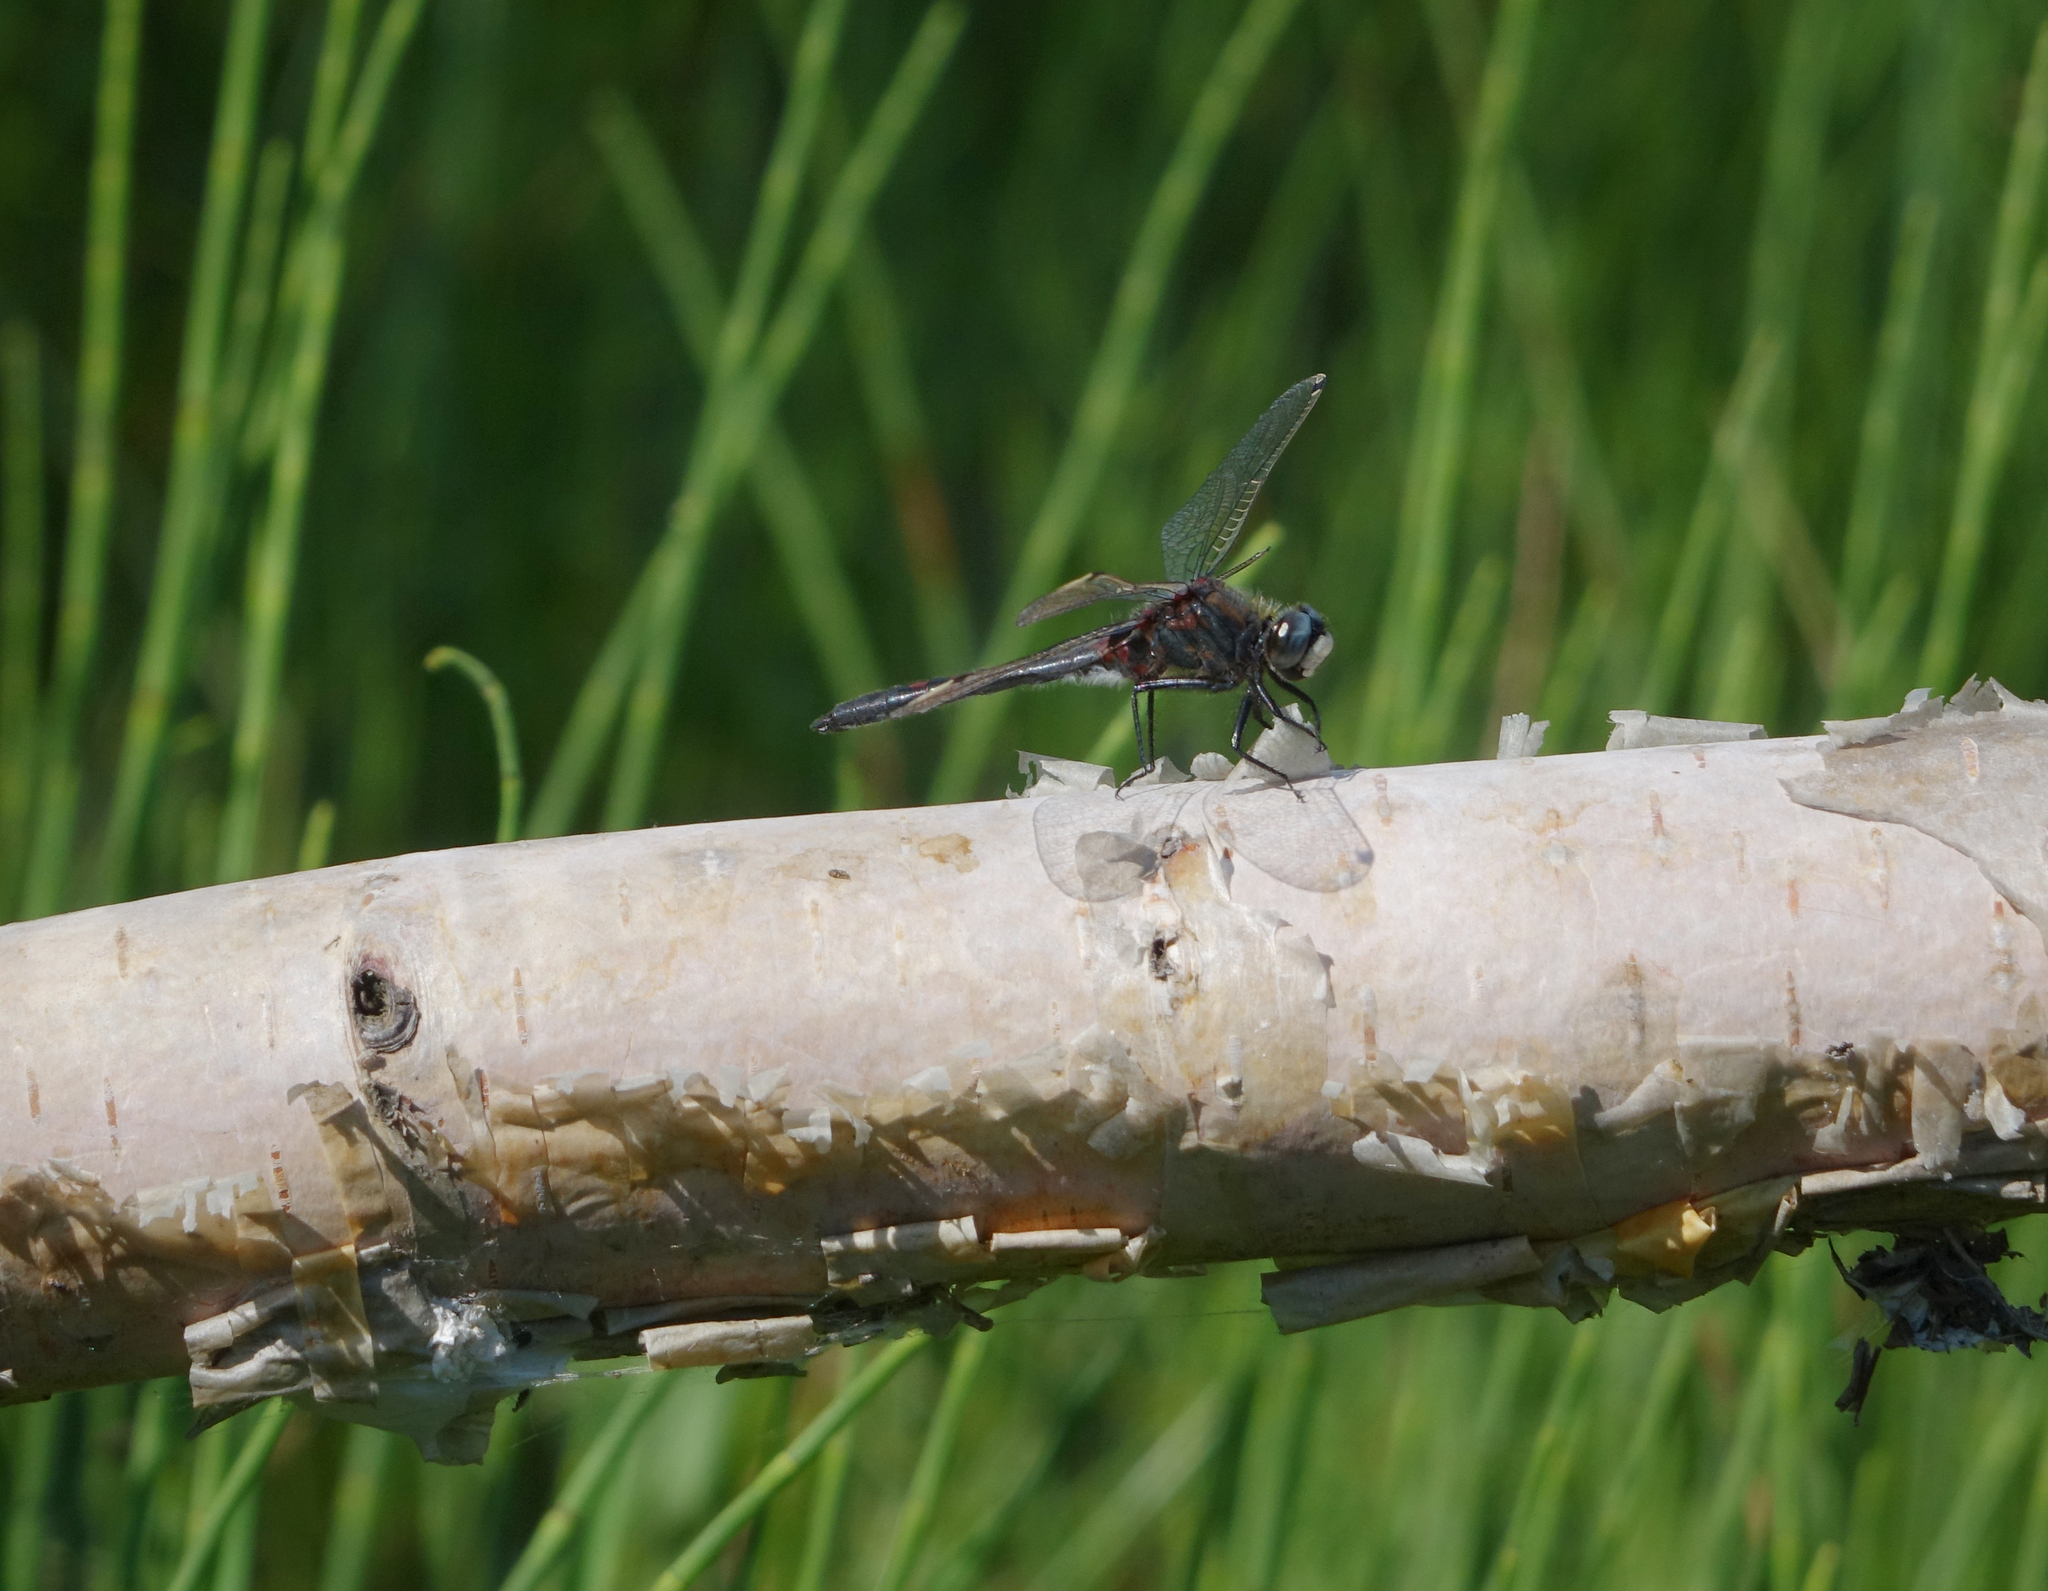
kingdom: Animalia
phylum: Arthropoda
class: Insecta
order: Odonata
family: Libellulidae
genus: Leucorrhinia
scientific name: Leucorrhinia intermedia
